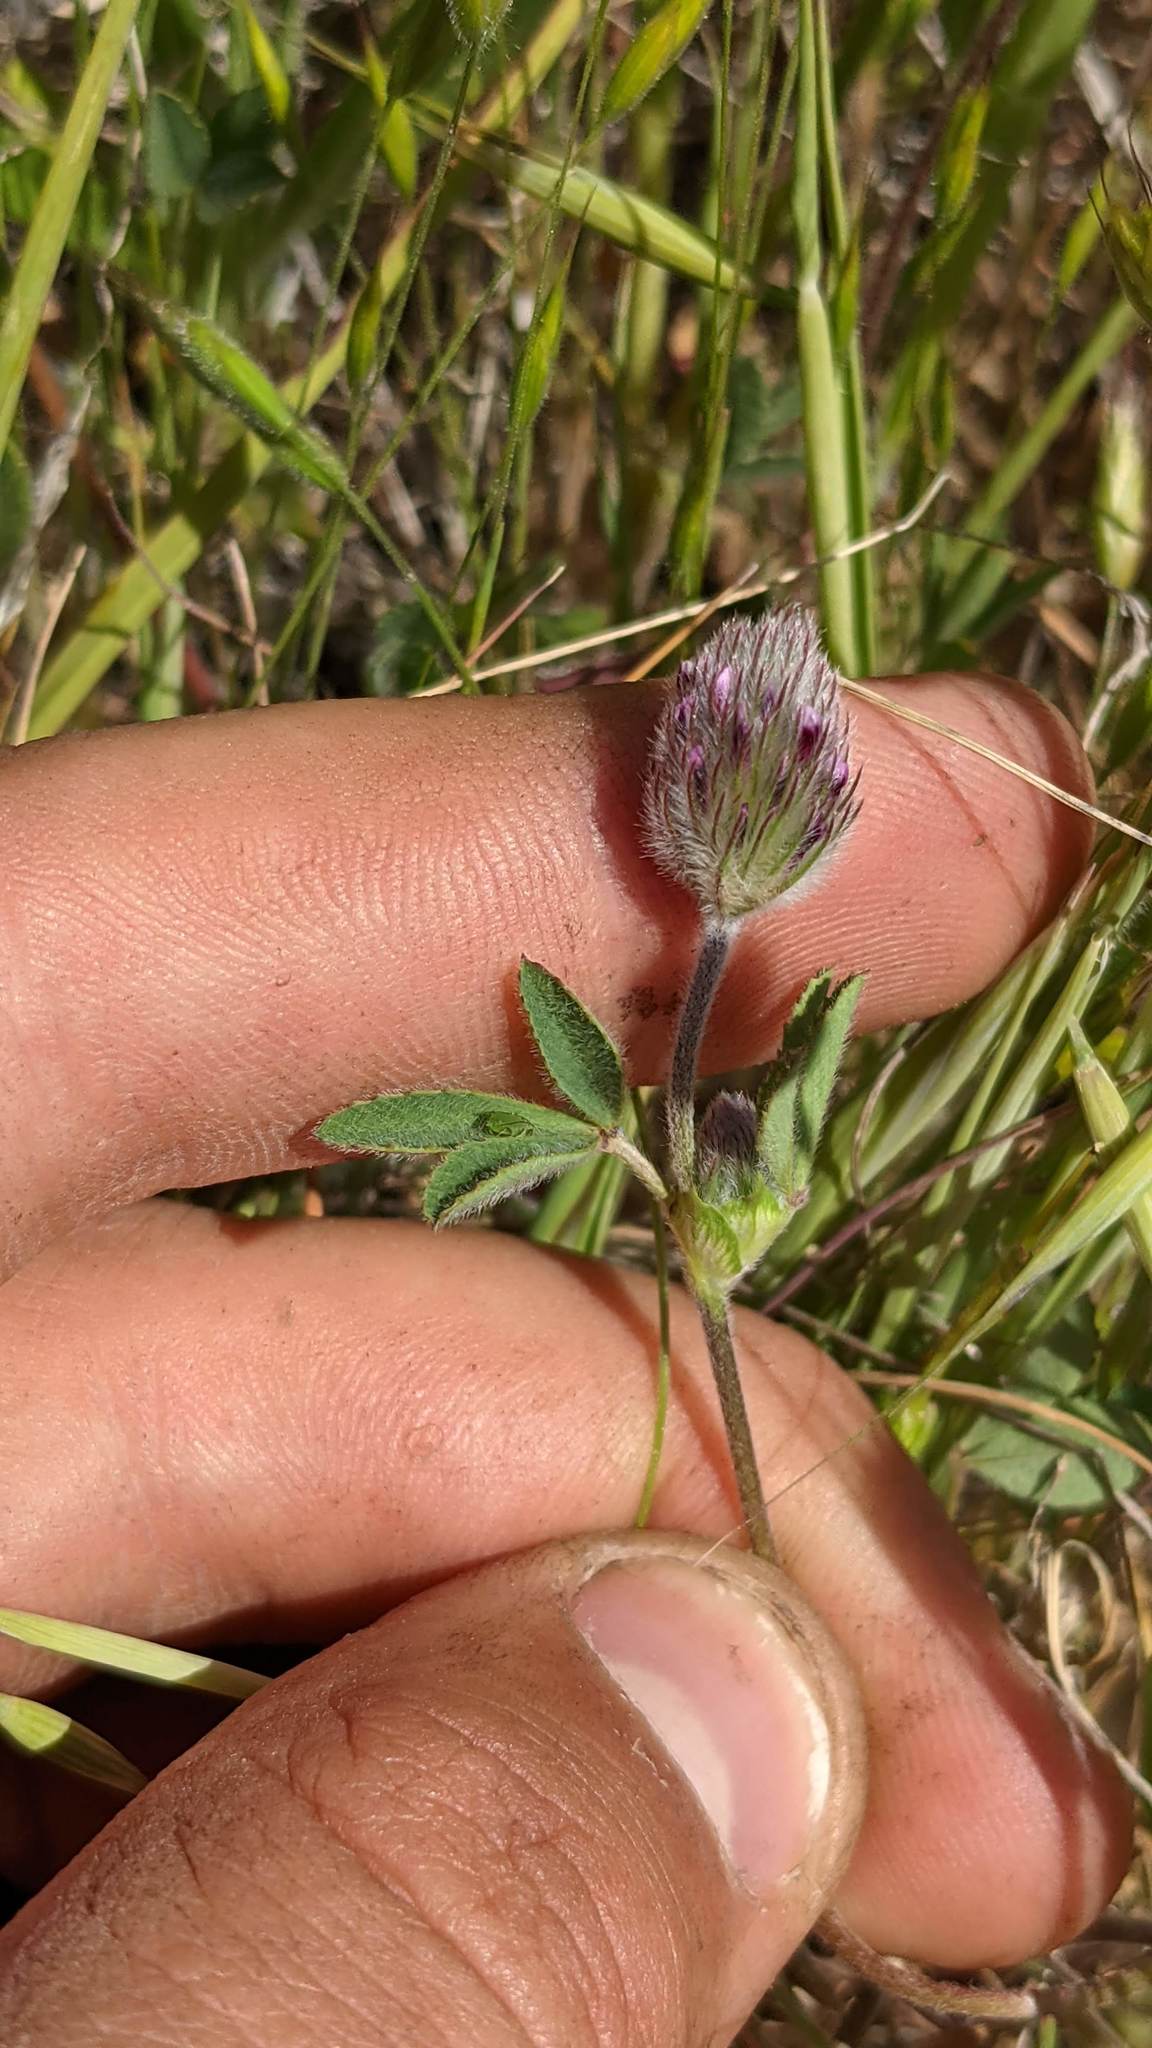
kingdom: Plantae
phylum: Tracheophyta
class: Magnoliopsida
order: Fabales
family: Fabaceae
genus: Trifolium
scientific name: Trifolium albopurpureum
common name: Rancheria clover
